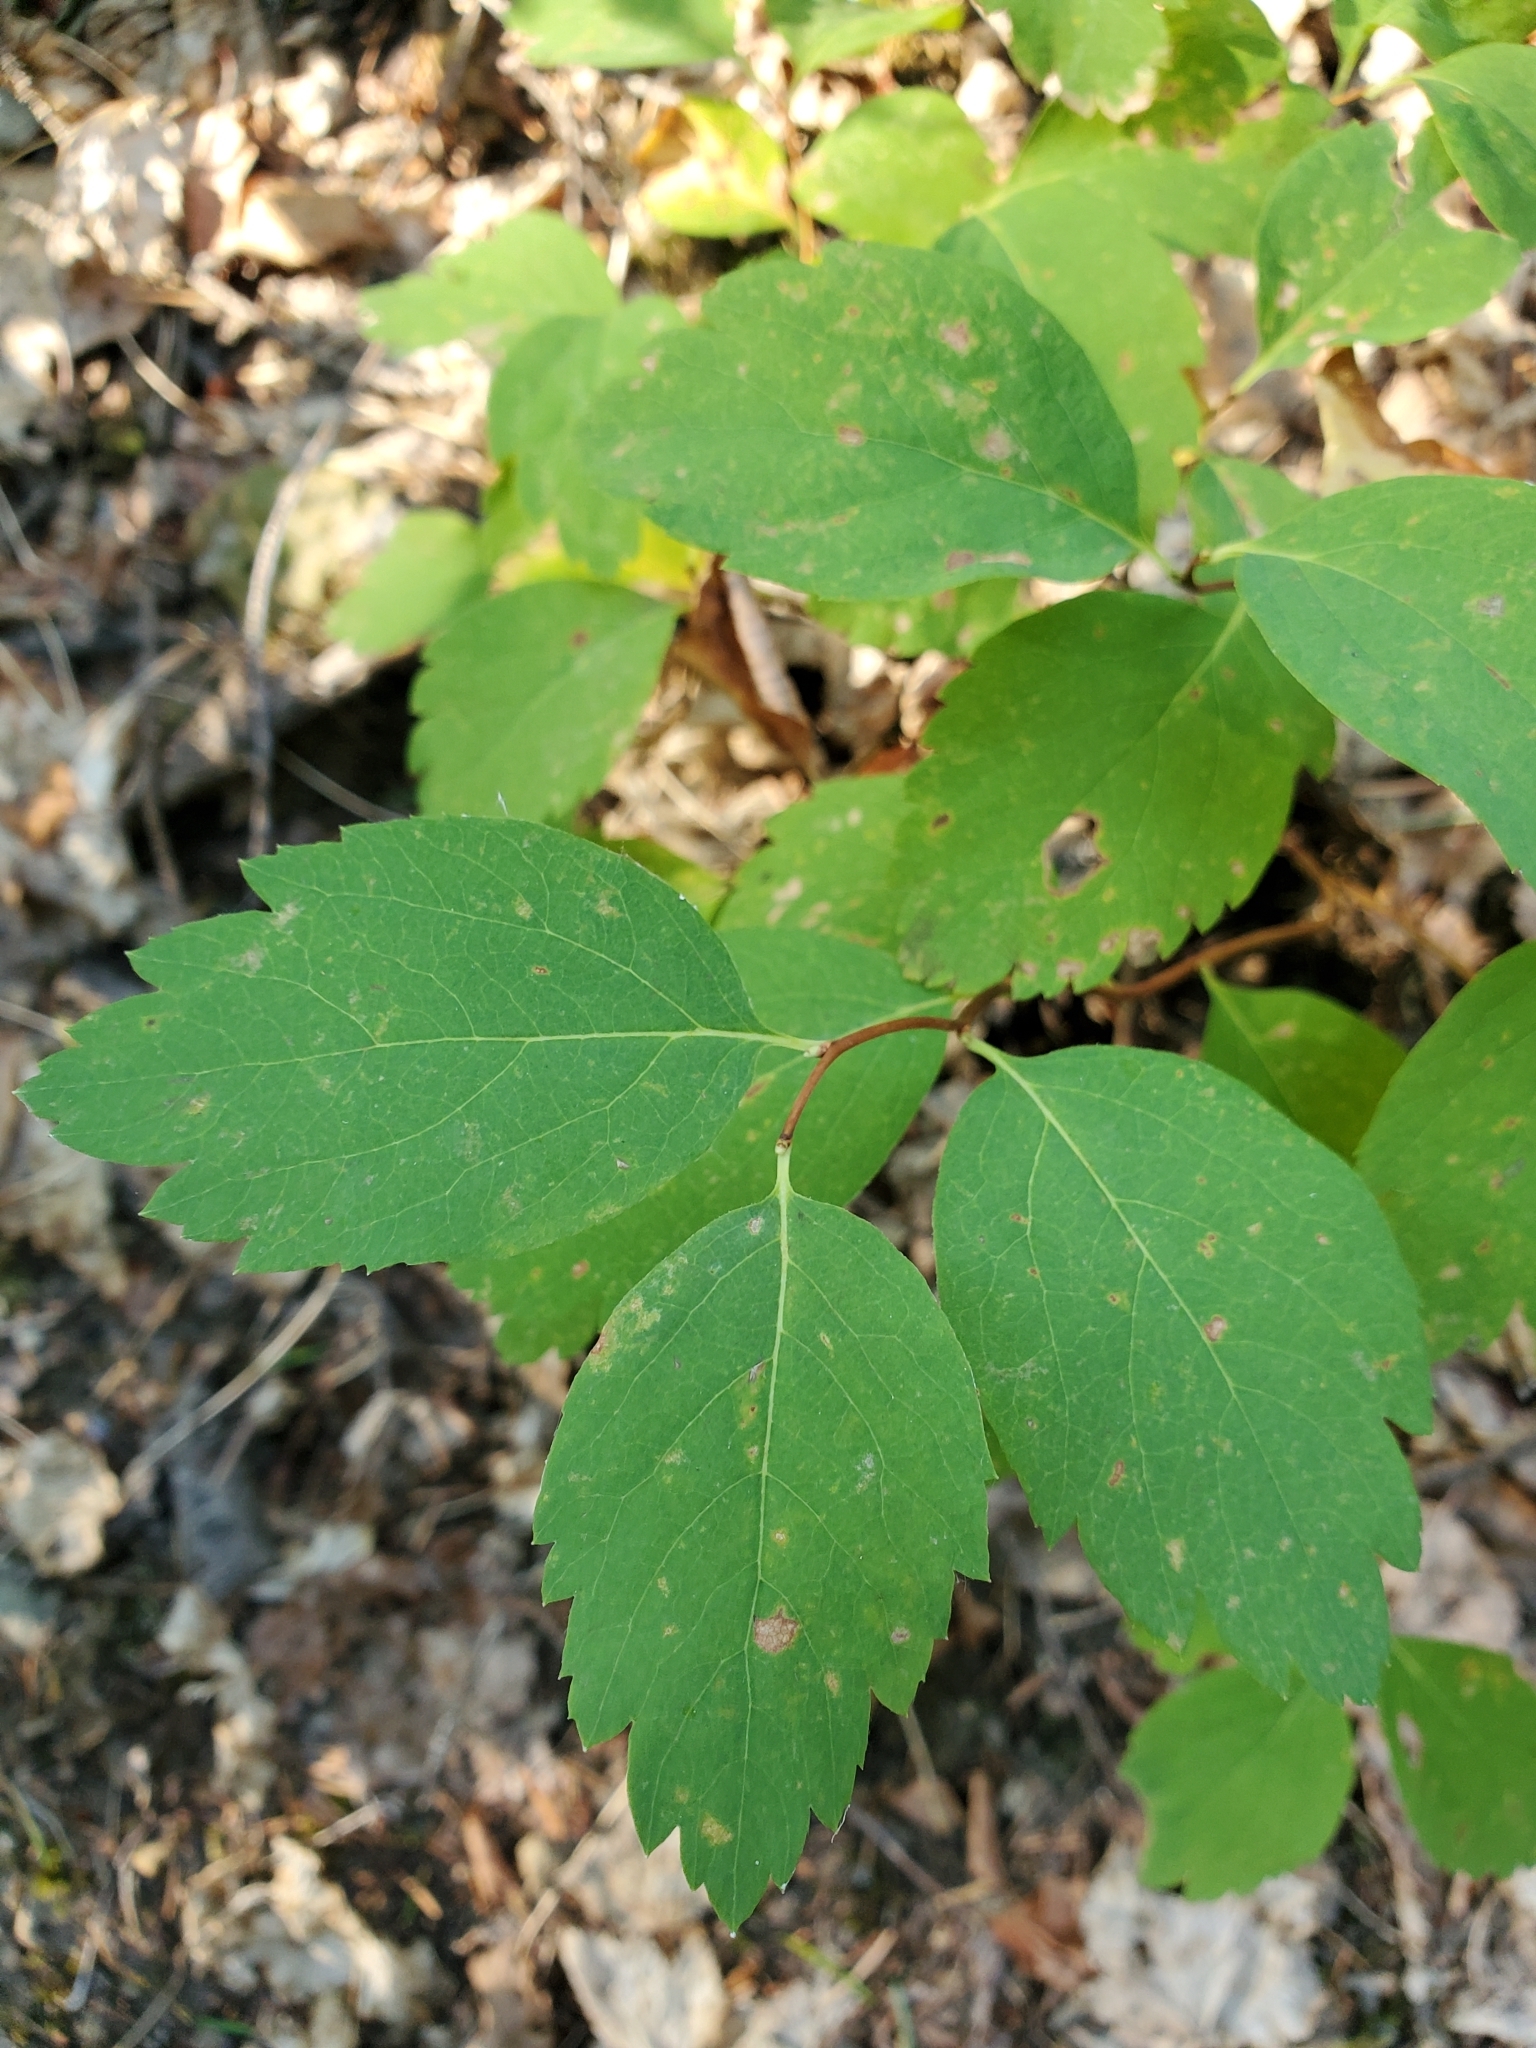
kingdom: Plantae
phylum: Tracheophyta
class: Magnoliopsida
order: Rosales
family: Rosaceae
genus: Spiraea
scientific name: Spiraea lucida
